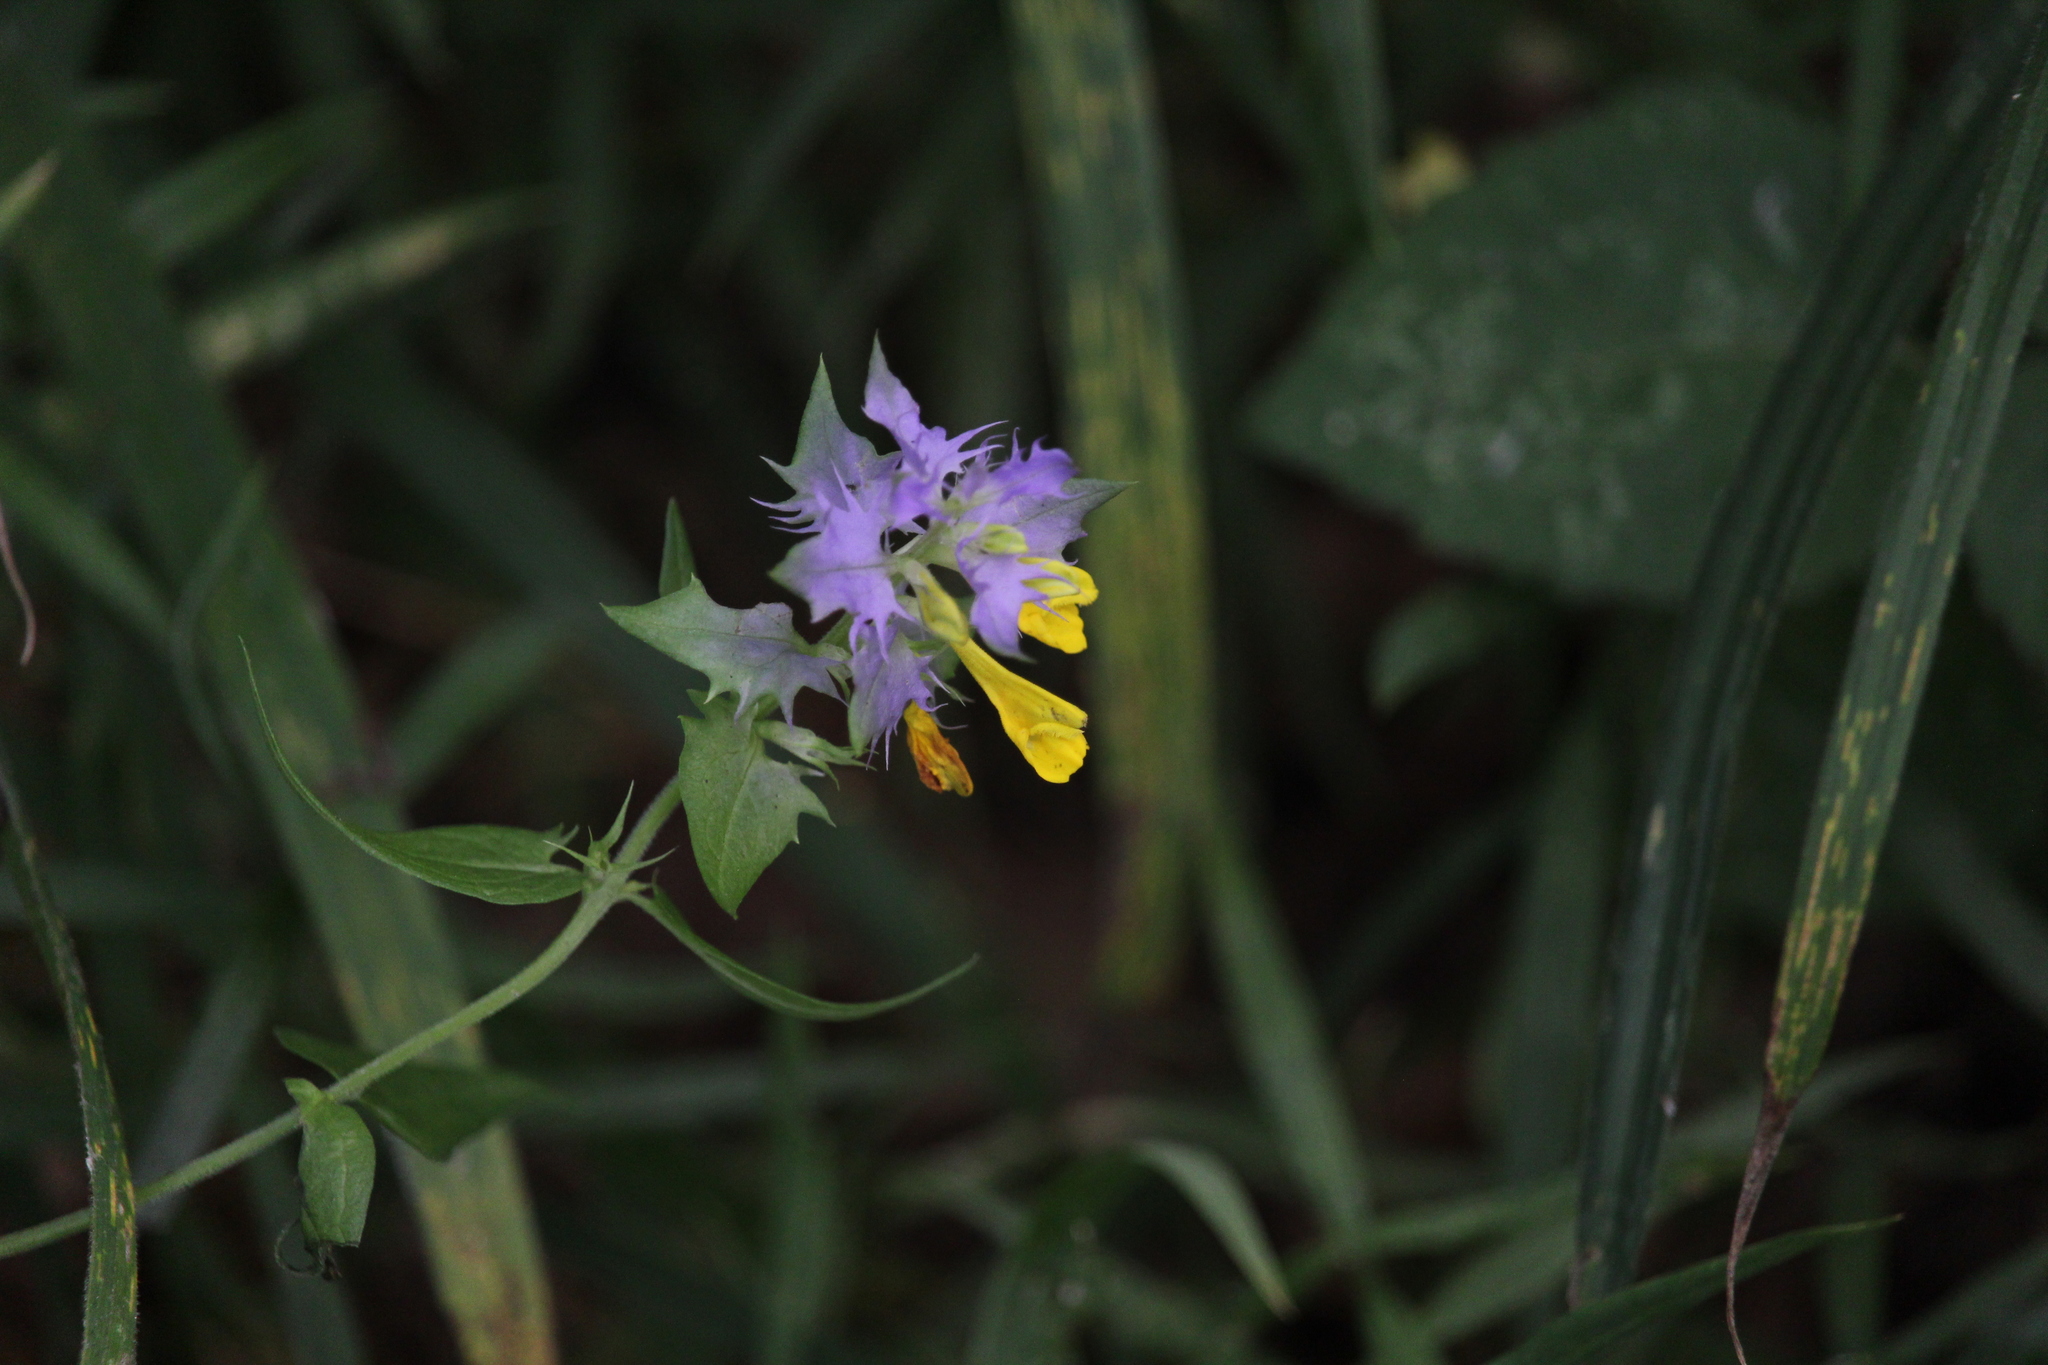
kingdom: Plantae
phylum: Tracheophyta
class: Magnoliopsida
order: Lamiales
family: Orobanchaceae
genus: Melampyrum
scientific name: Melampyrum nemorosum
